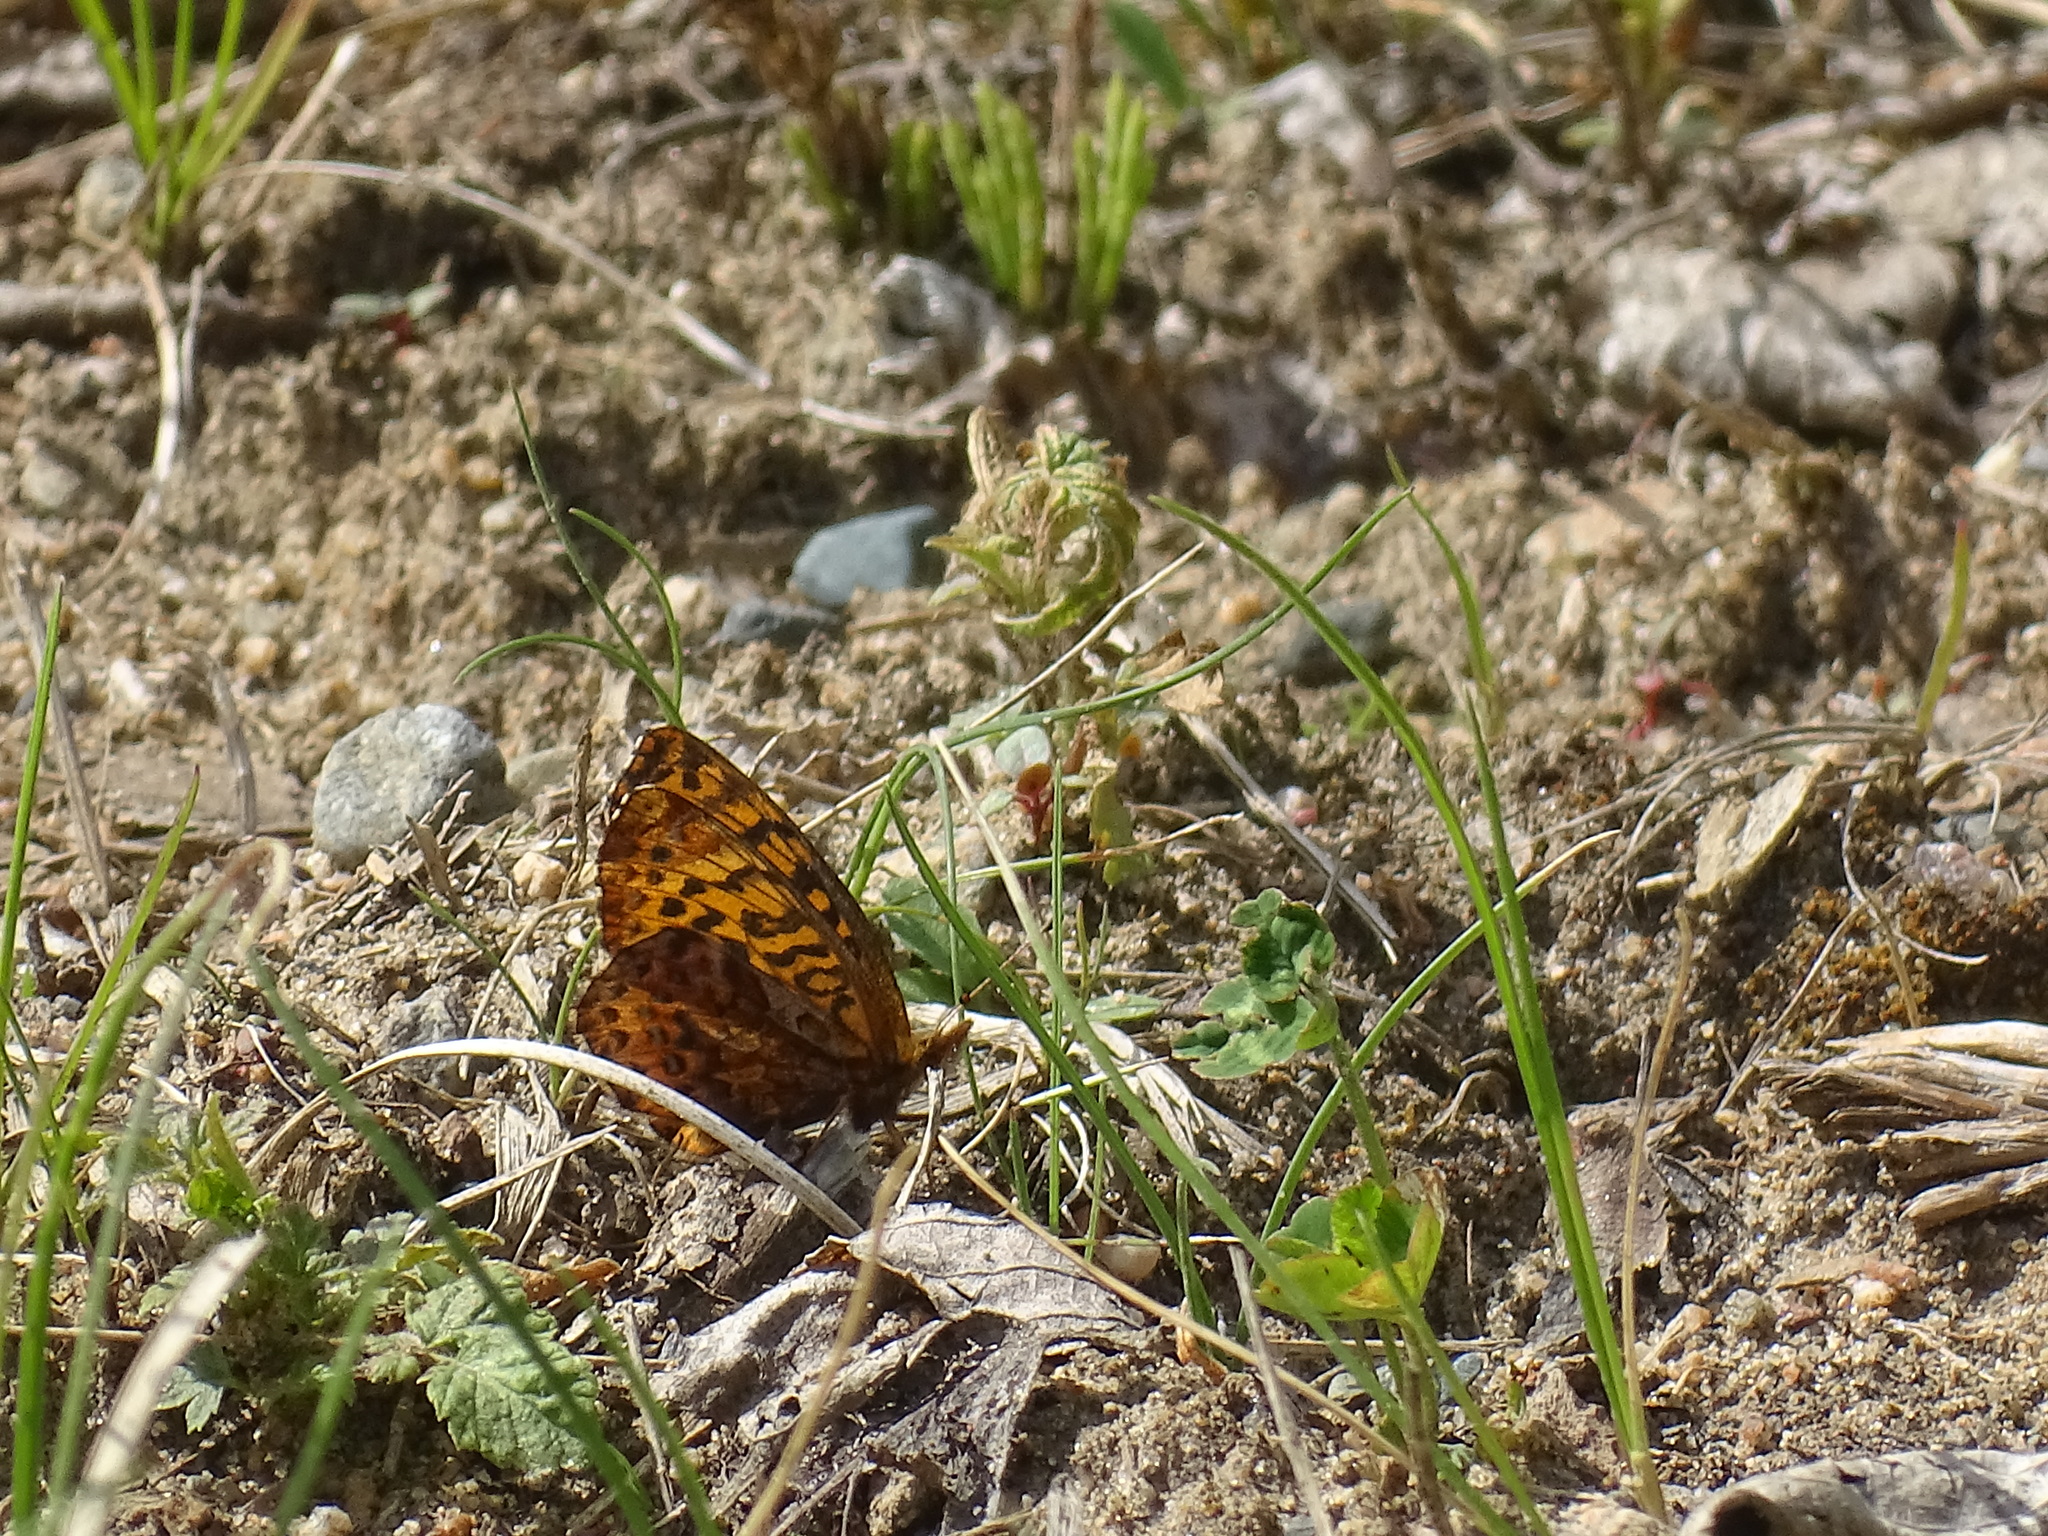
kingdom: Animalia
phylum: Arthropoda
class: Insecta
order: Lepidoptera
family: Nymphalidae
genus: Clossiana
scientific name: Clossiana toddi
